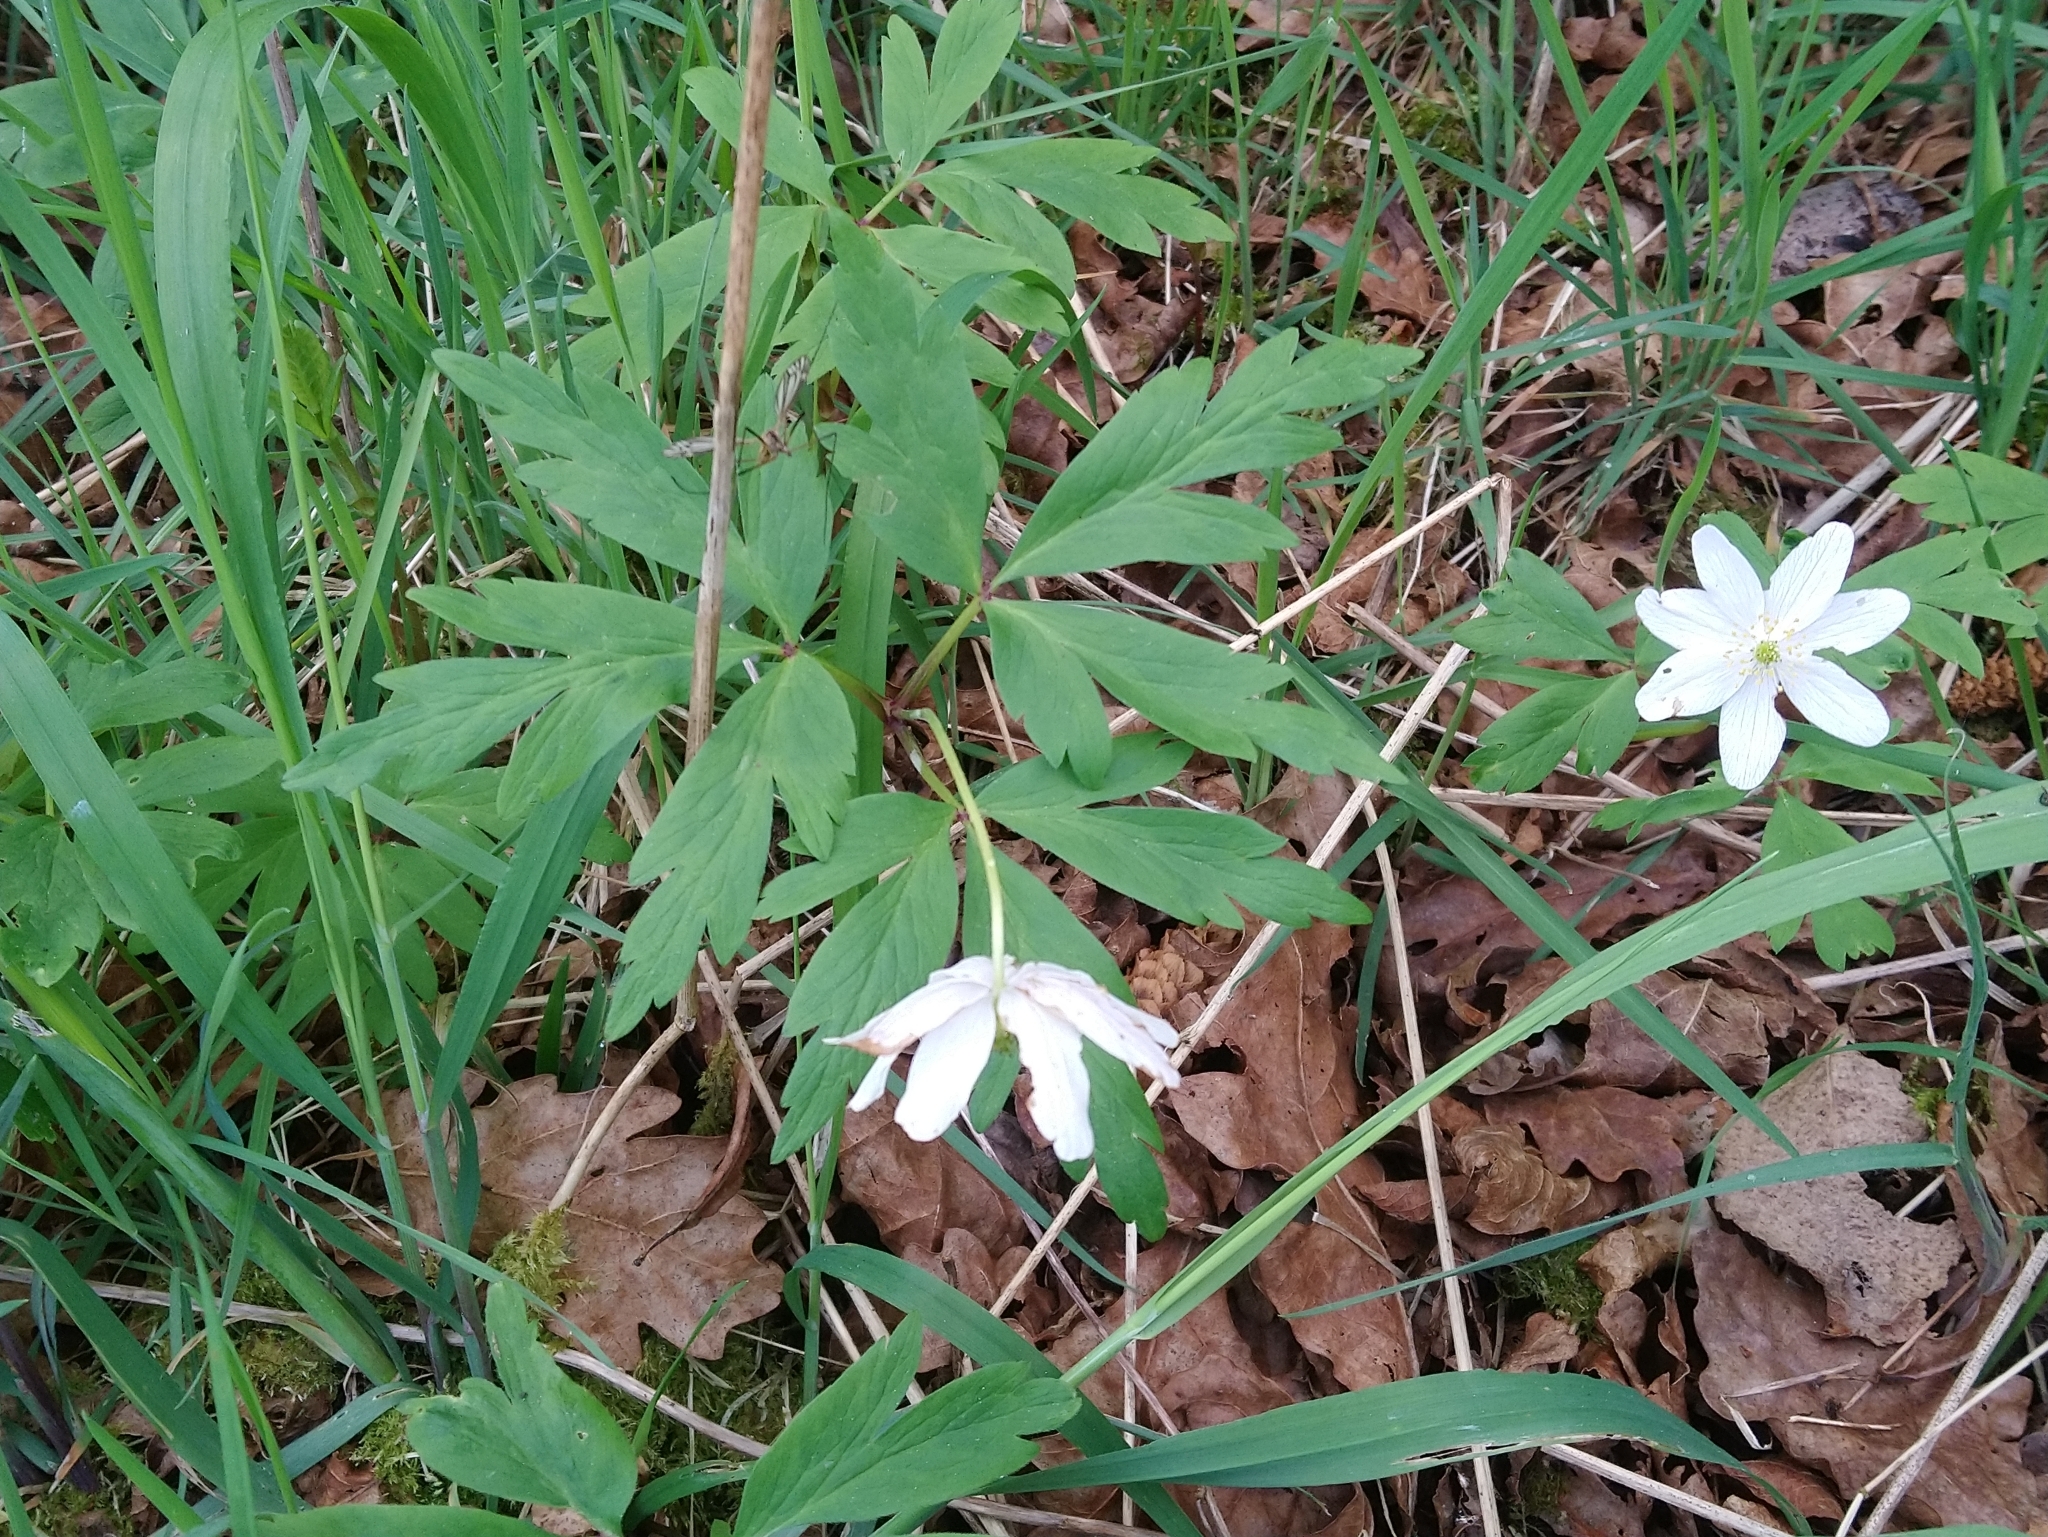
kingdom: Plantae
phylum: Tracheophyta
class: Magnoliopsida
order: Ranunculales
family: Ranunculaceae
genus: Anemone
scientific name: Anemone nemorosa
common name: Wood anemone
